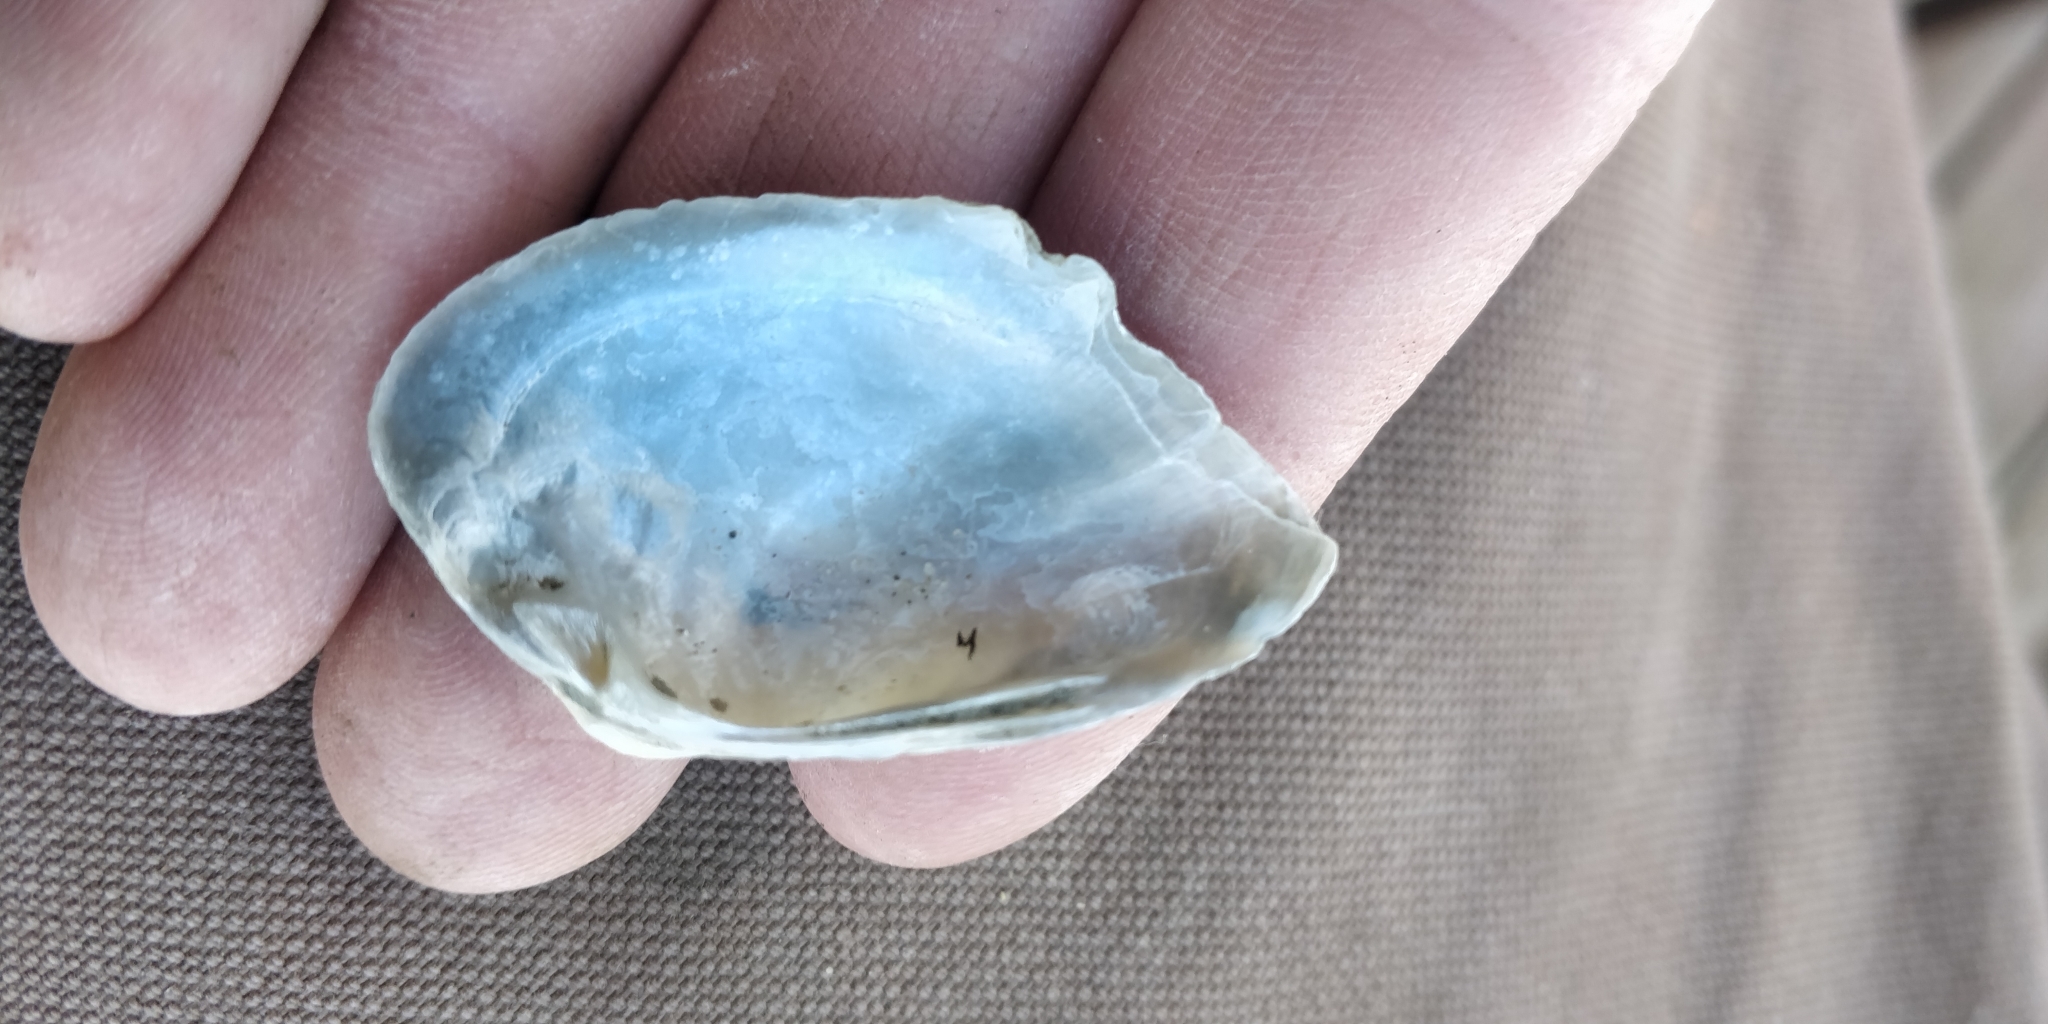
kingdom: Animalia
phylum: Mollusca
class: Bivalvia
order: Unionida
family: Unionidae
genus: Truncilla
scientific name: Truncilla donaciformis
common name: Fawnsfoot
